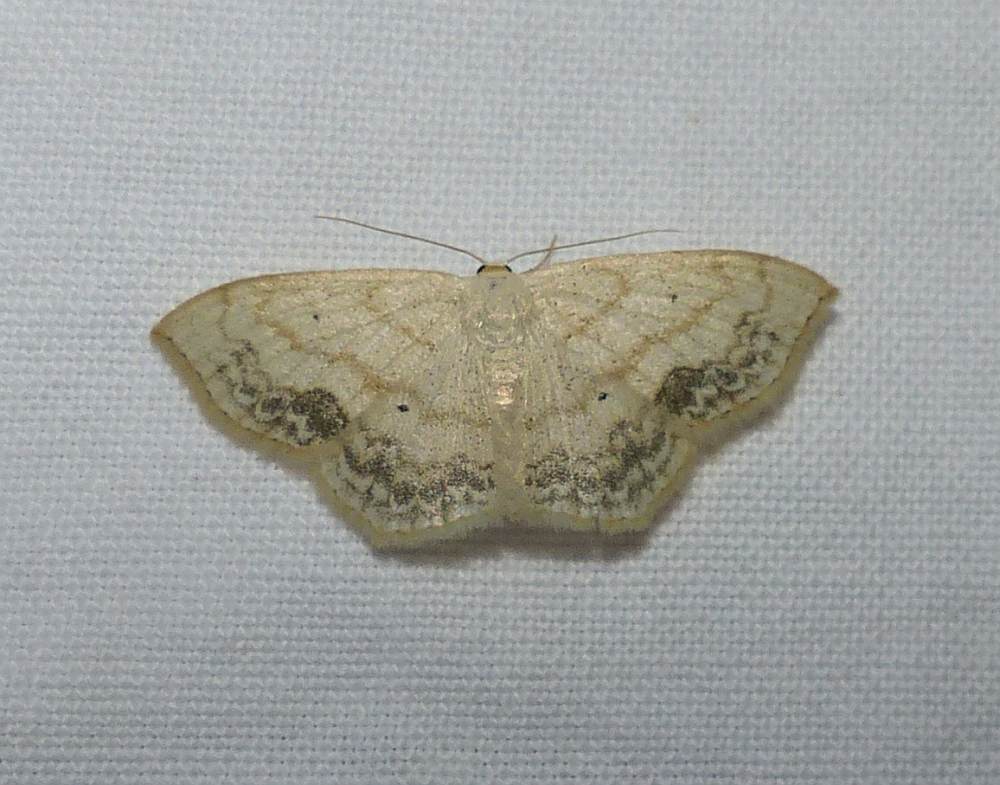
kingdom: Animalia
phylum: Arthropoda
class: Insecta
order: Lepidoptera
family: Geometridae
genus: Scopula
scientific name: Scopula limboundata
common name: Large lace border
